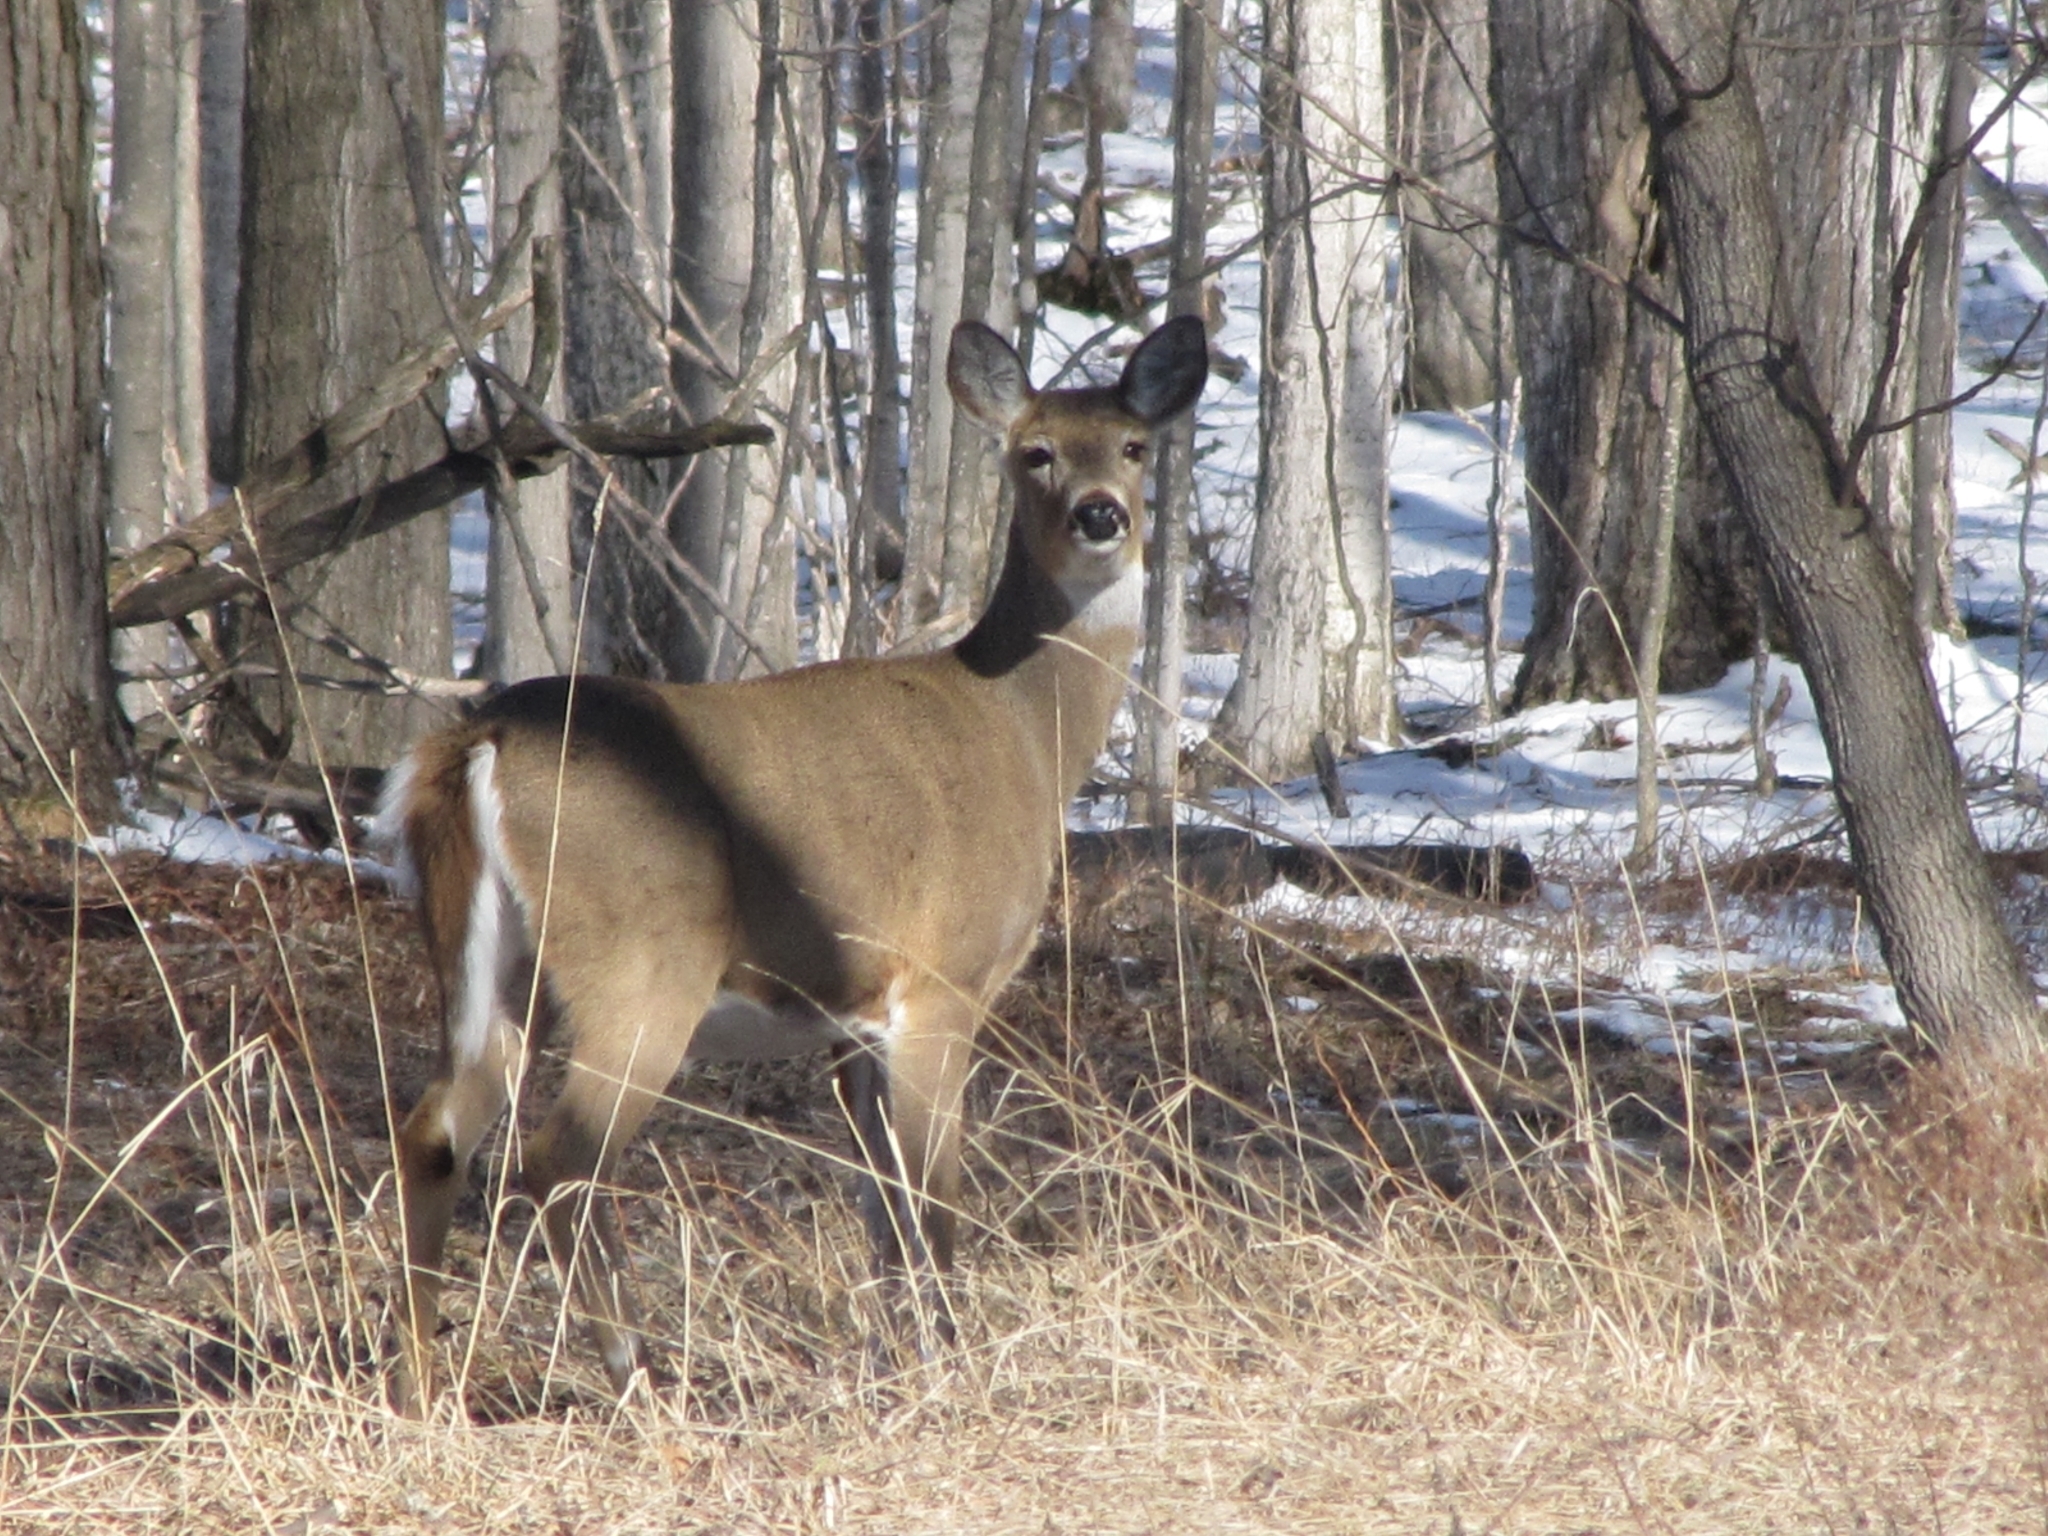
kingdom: Animalia
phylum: Chordata
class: Mammalia
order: Artiodactyla
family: Cervidae
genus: Odocoileus
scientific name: Odocoileus virginianus
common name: White-tailed deer
